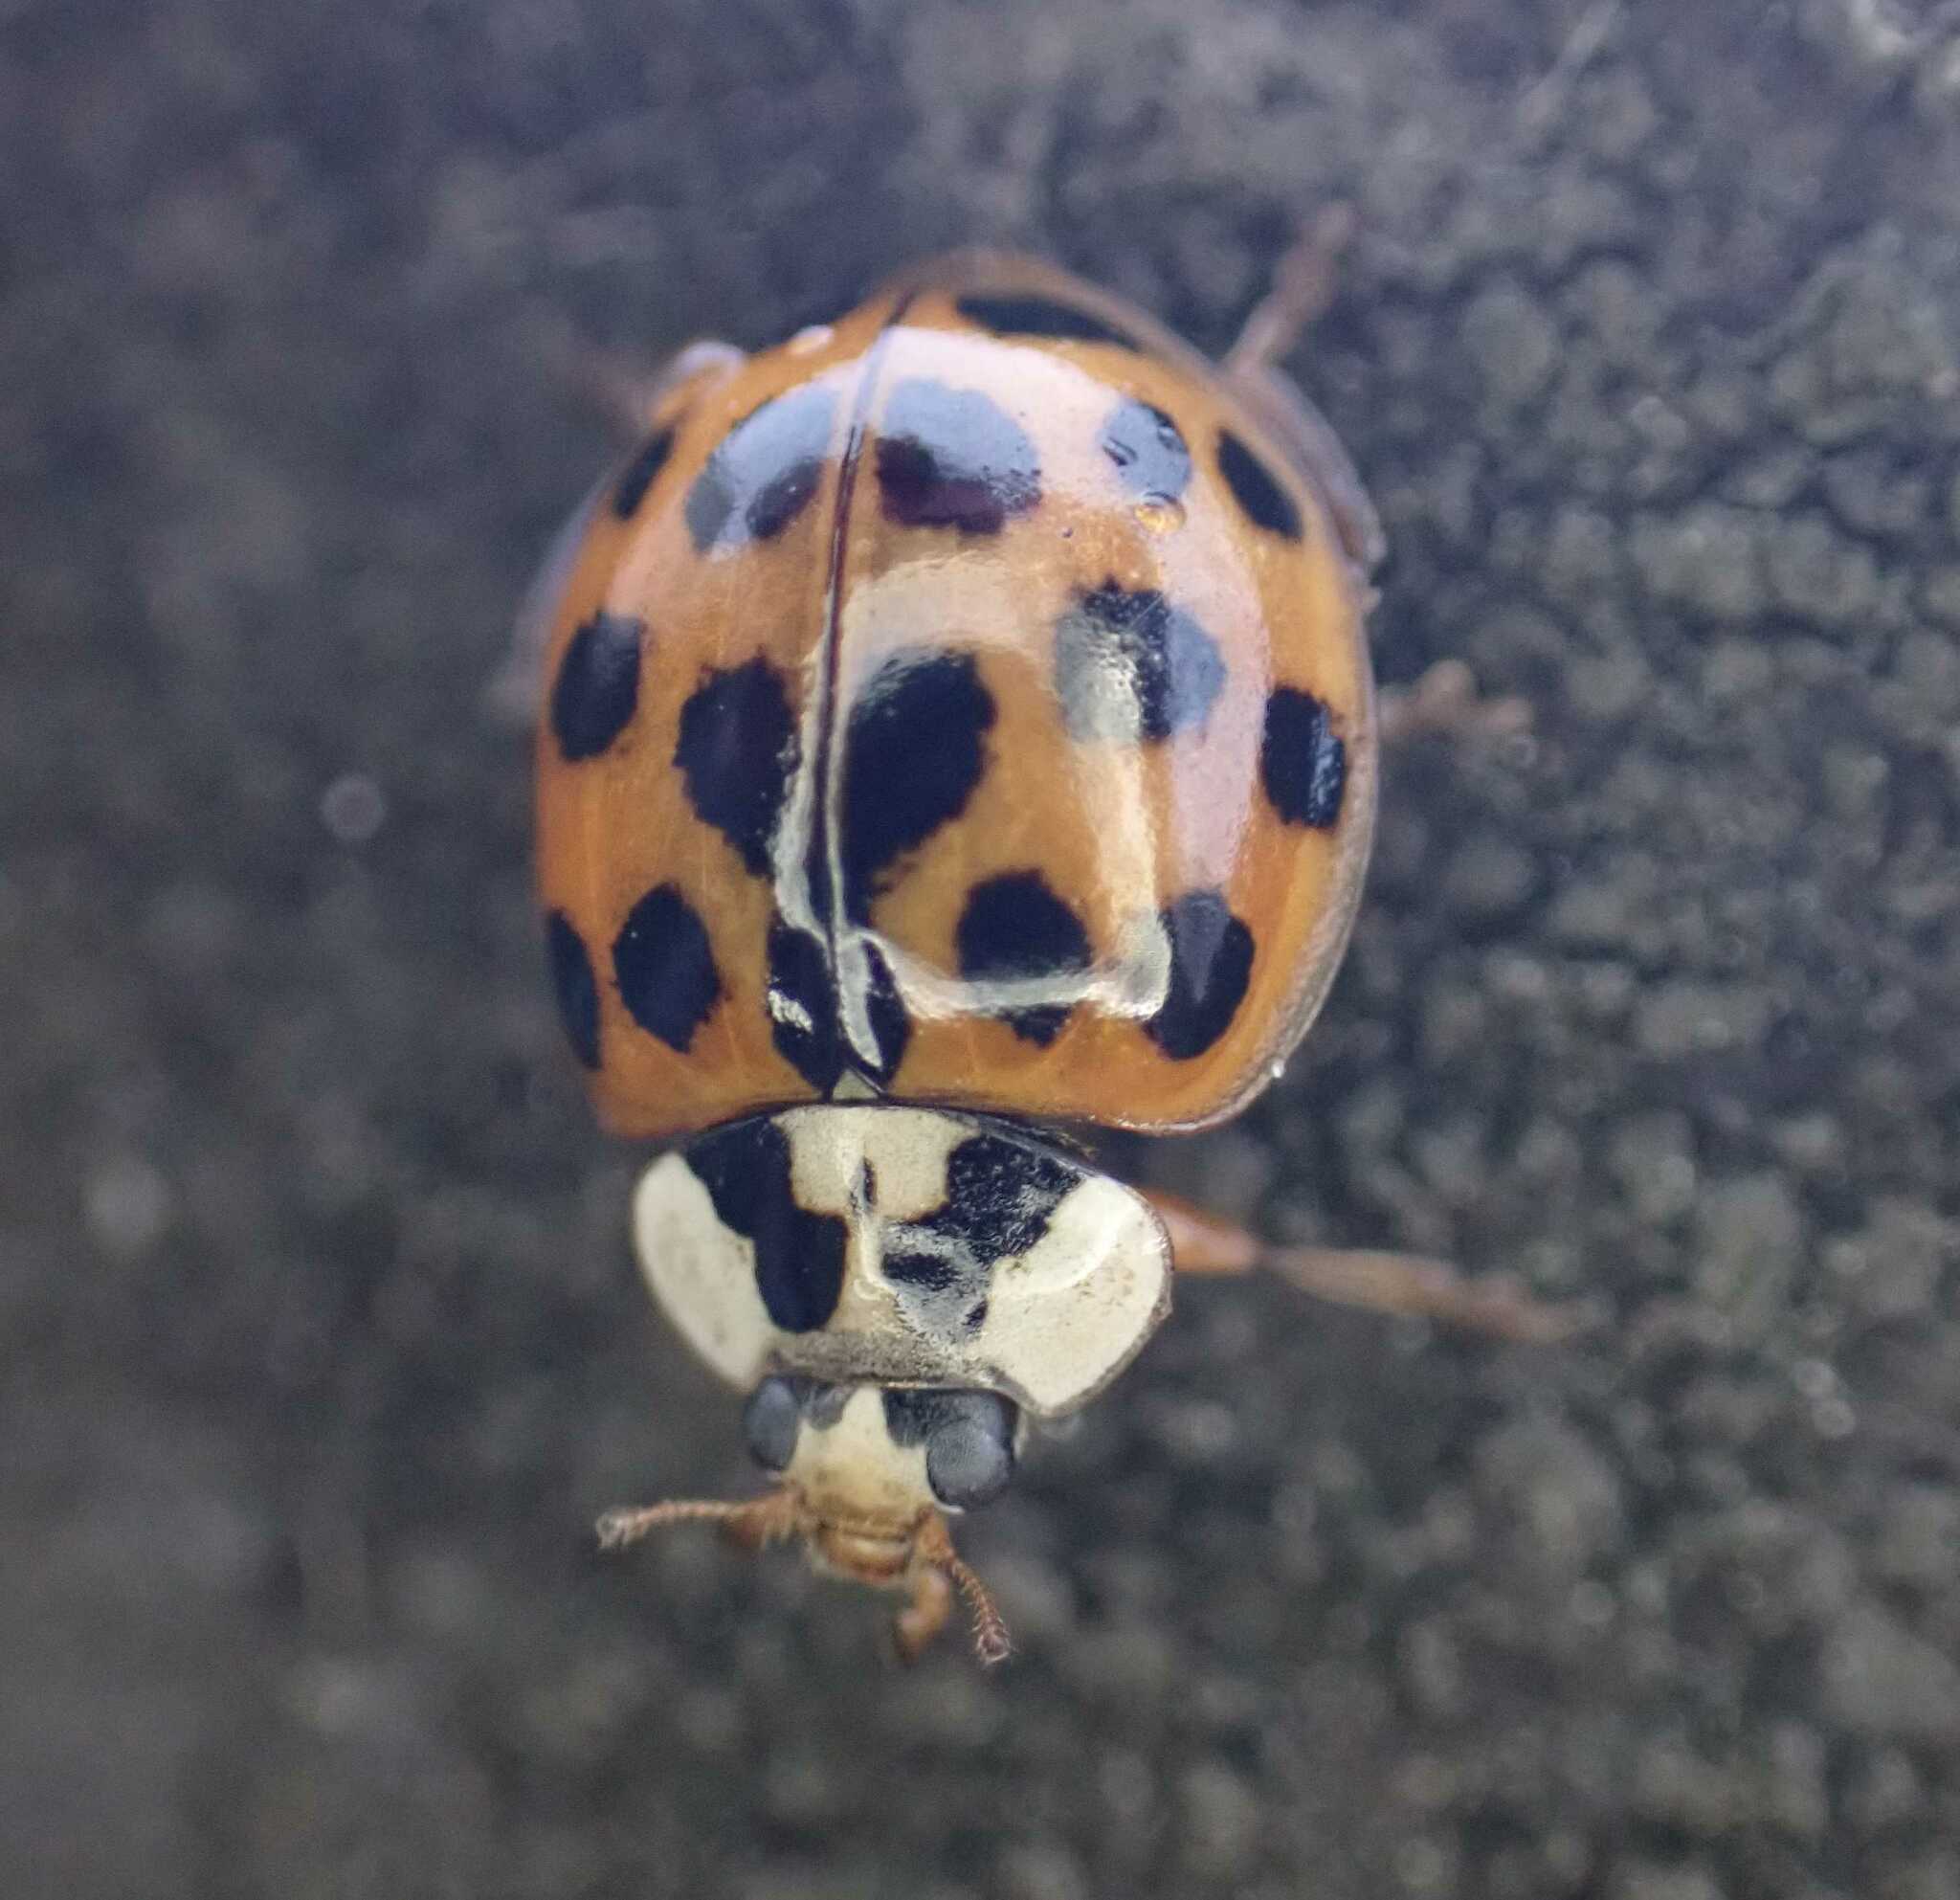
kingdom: Animalia
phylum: Arthropoda
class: Insecta
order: Coleoptera
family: Coccinellidae
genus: Harmonia
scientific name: Harmonia axyridis
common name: Harlequin ladybird
